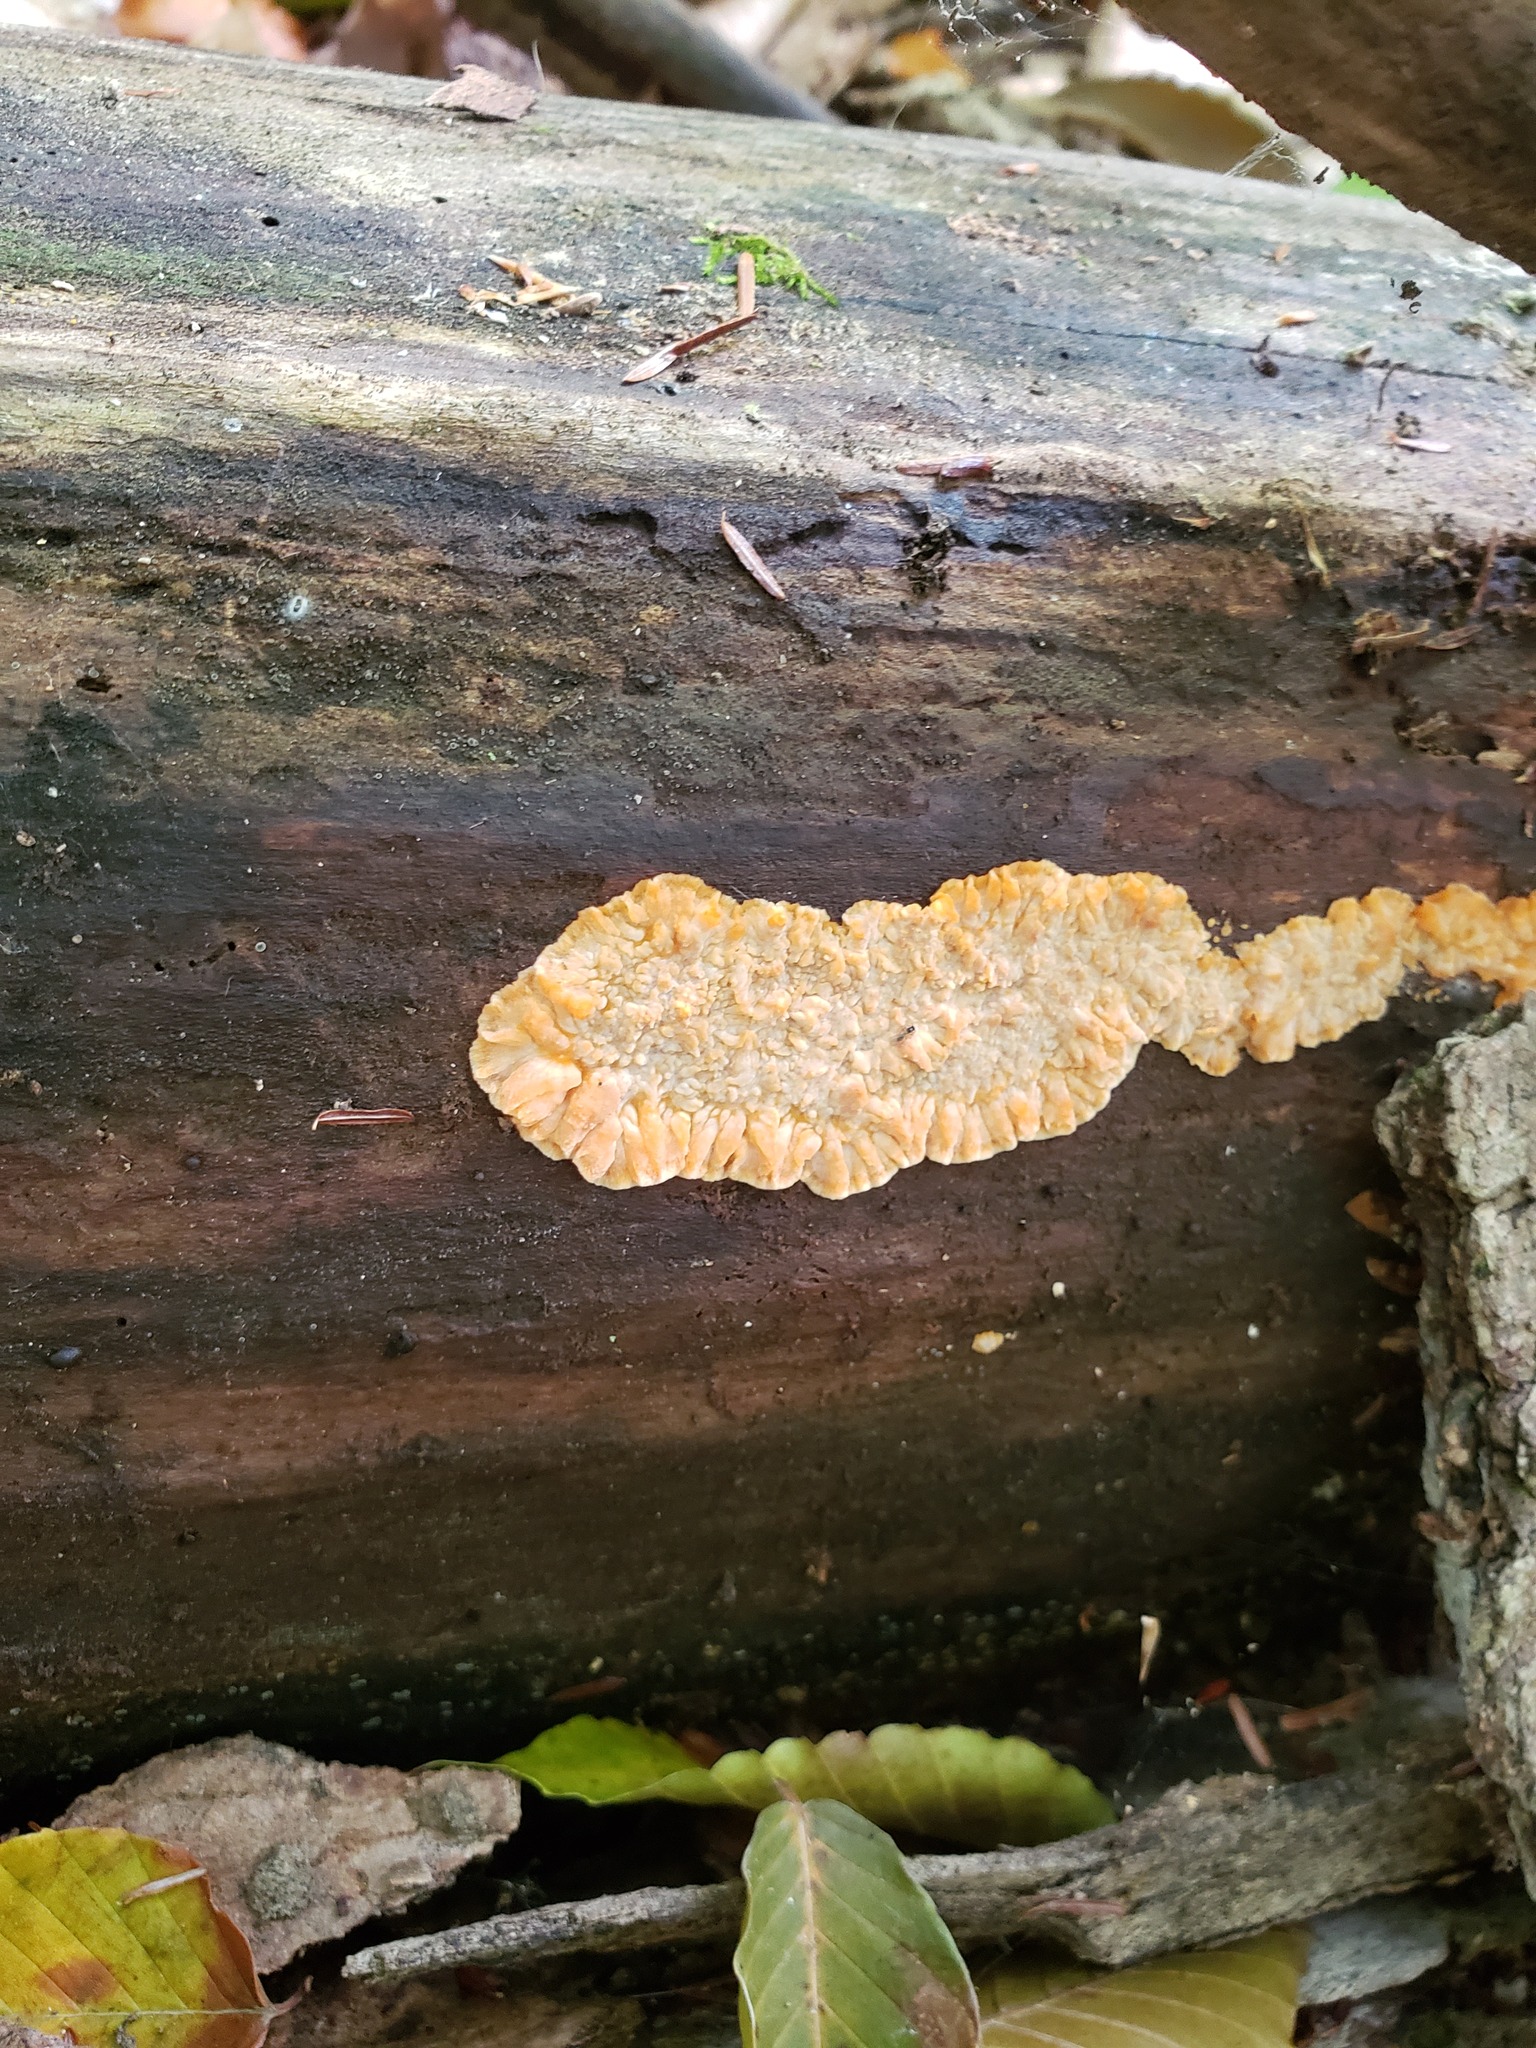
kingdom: Fungi
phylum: Basidiomycota
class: Agaricomycetes
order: Polyporales
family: Meruliaceae
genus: Phlebia
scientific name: Phlebia radiata
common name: Wrinkled crust
